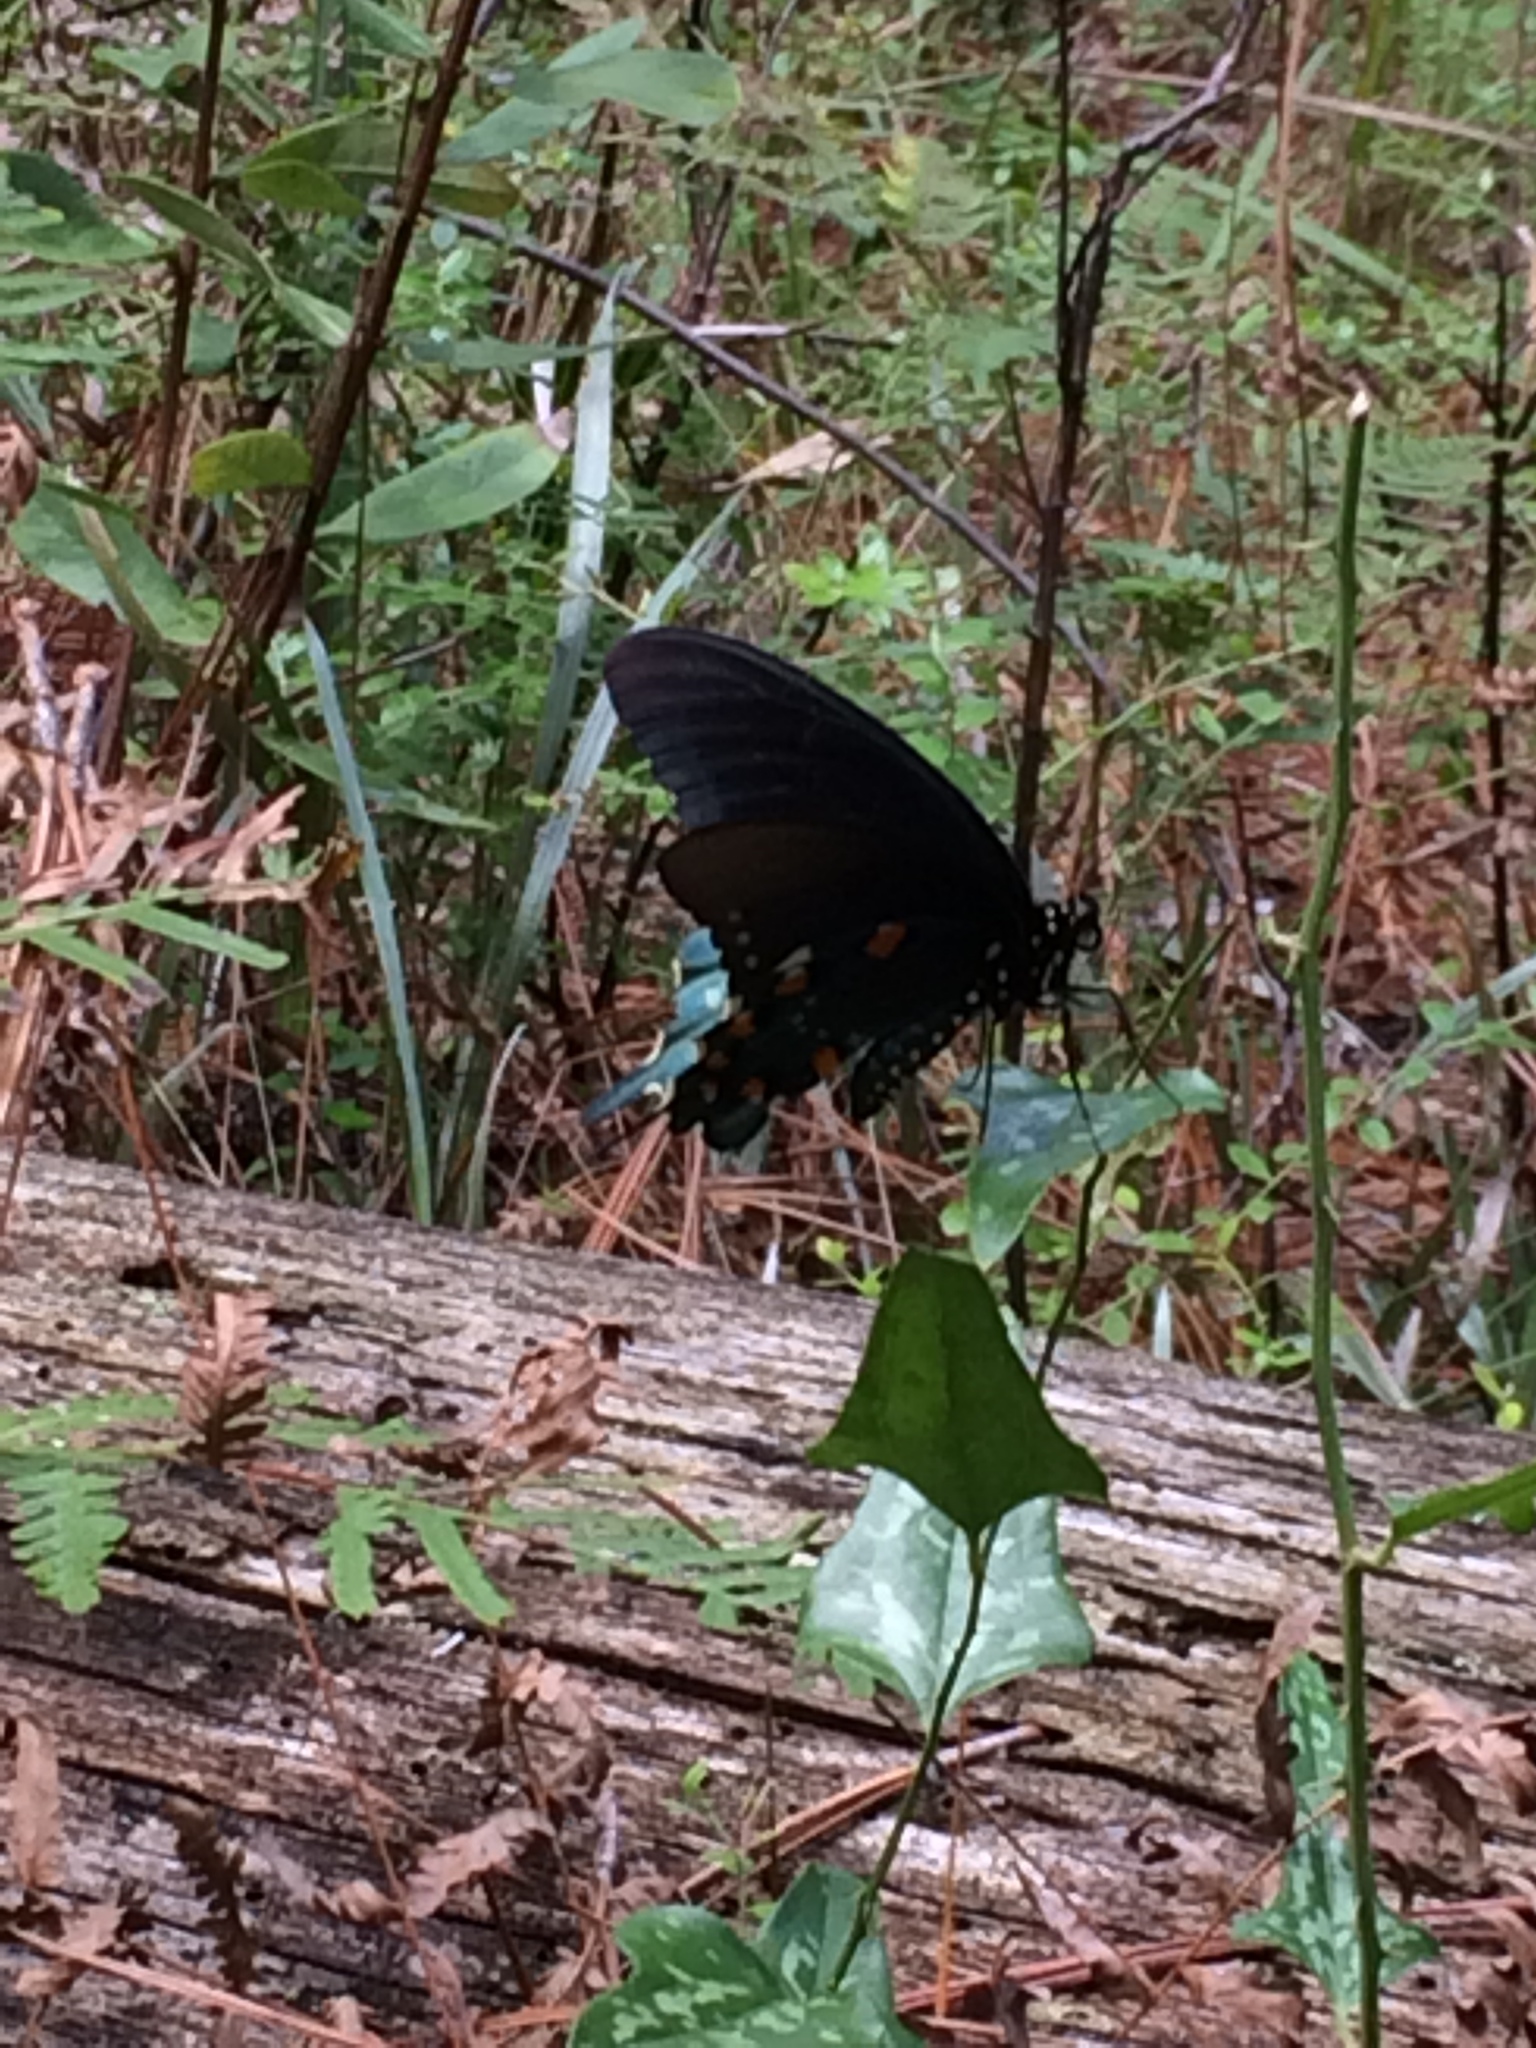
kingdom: Animalia
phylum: Arthropoda
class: Insecta
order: Lepidoptera
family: Papilionidae
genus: Battus
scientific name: Battus philenor
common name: Pipevine swallowtail
